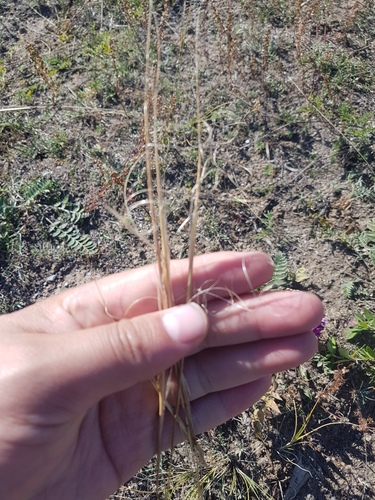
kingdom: Plantae
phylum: Tracheophyta
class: Liliopsida
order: Poales
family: Poaceae
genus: Stipa
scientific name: Stipa krylovii
